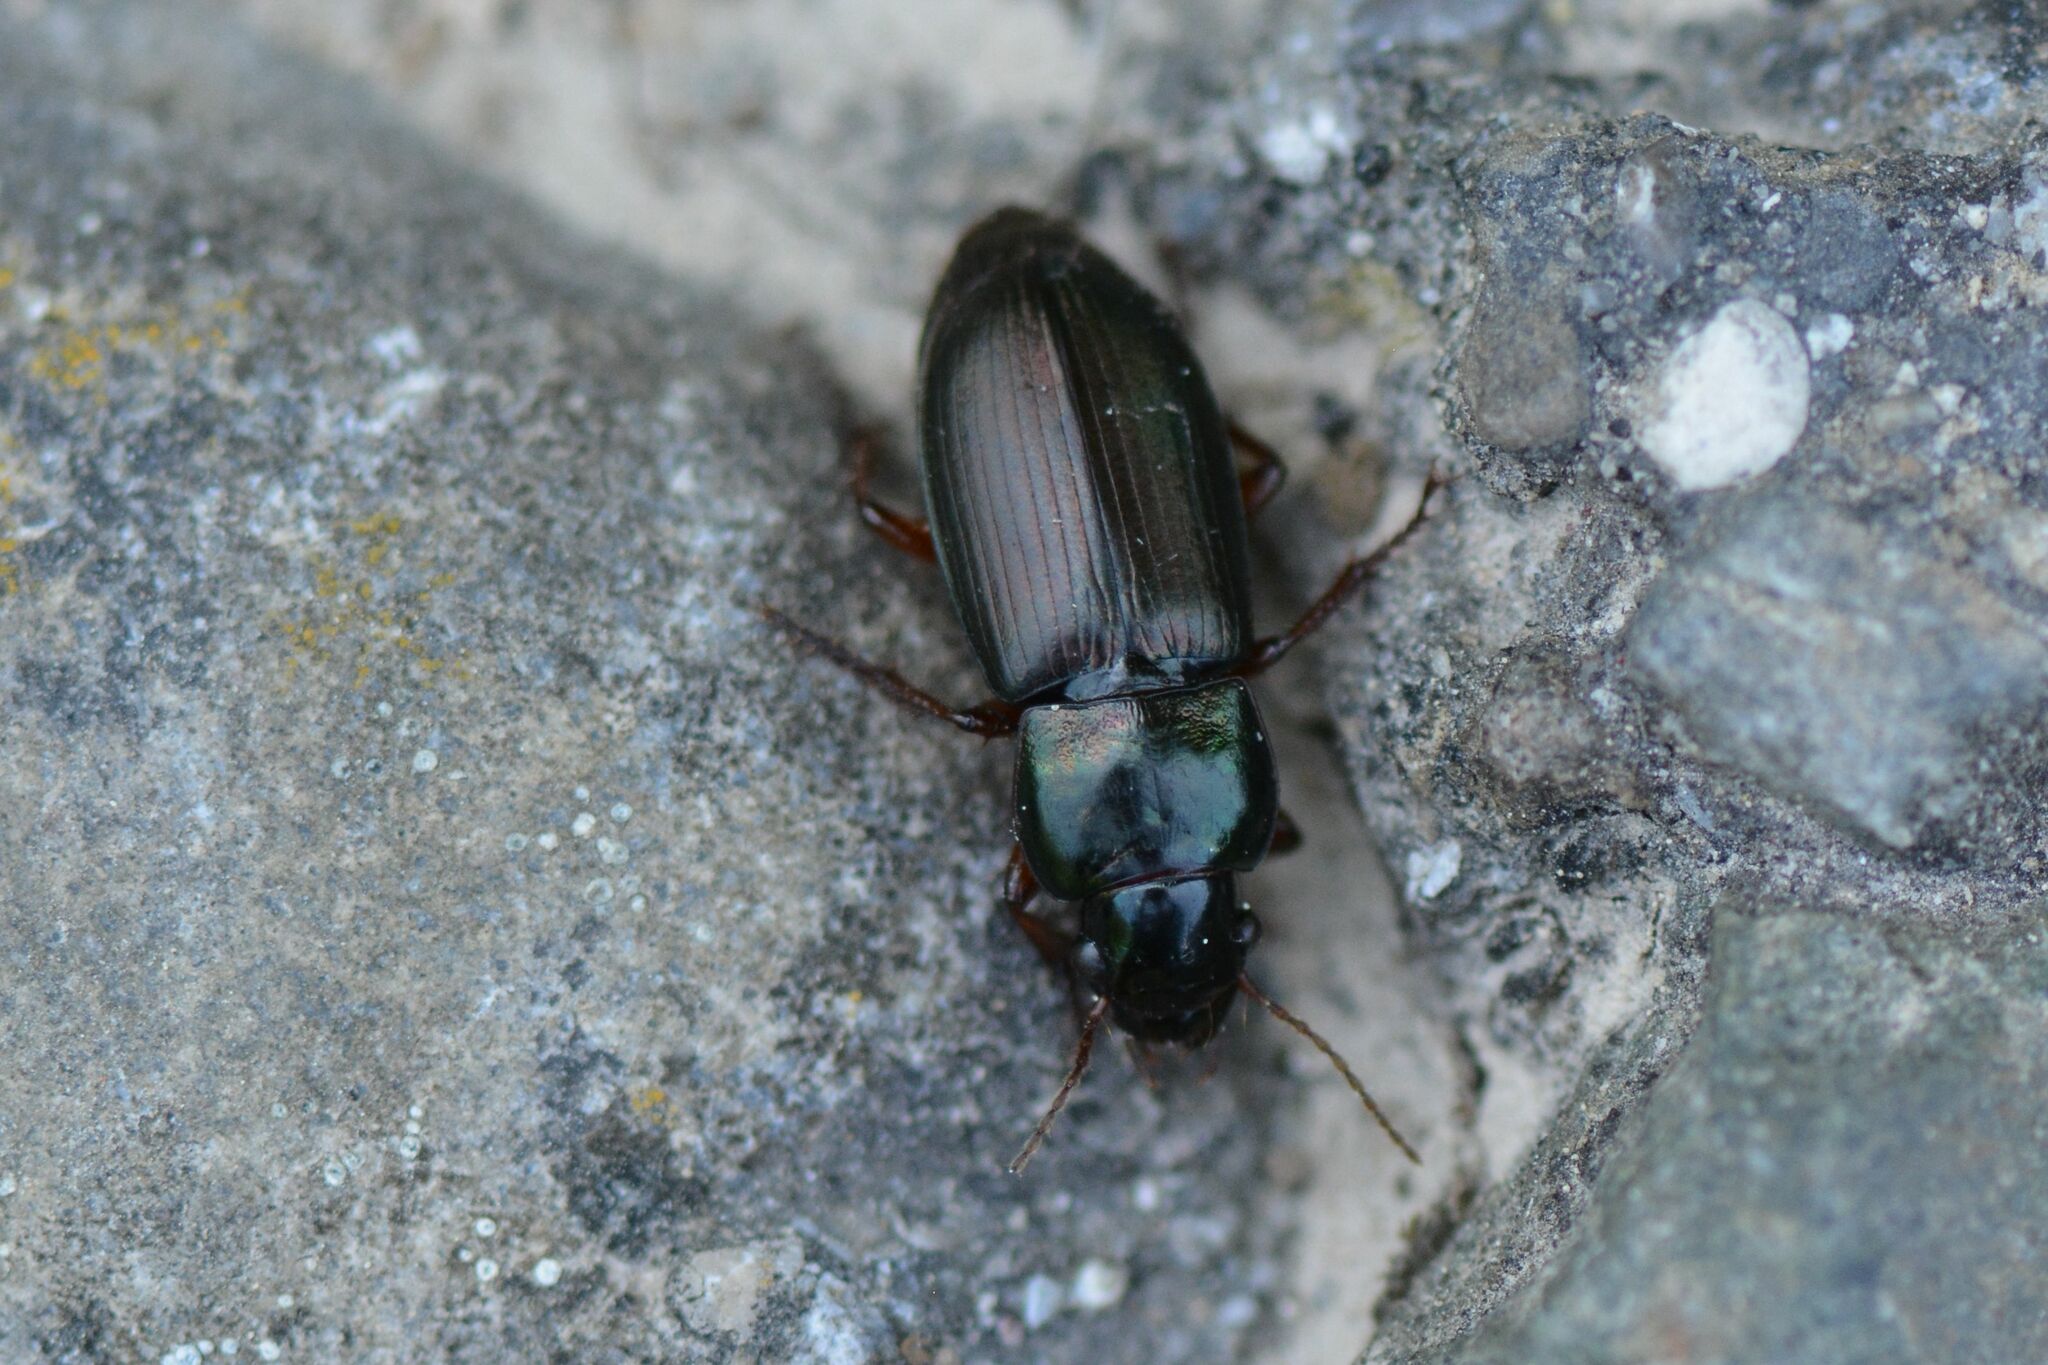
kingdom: Animalia
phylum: Arthropoda
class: Insecta
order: Coleoptera
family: Carabidae
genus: Harpalus
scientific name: Harpalus affinis
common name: Polychrome harp ground beetle
